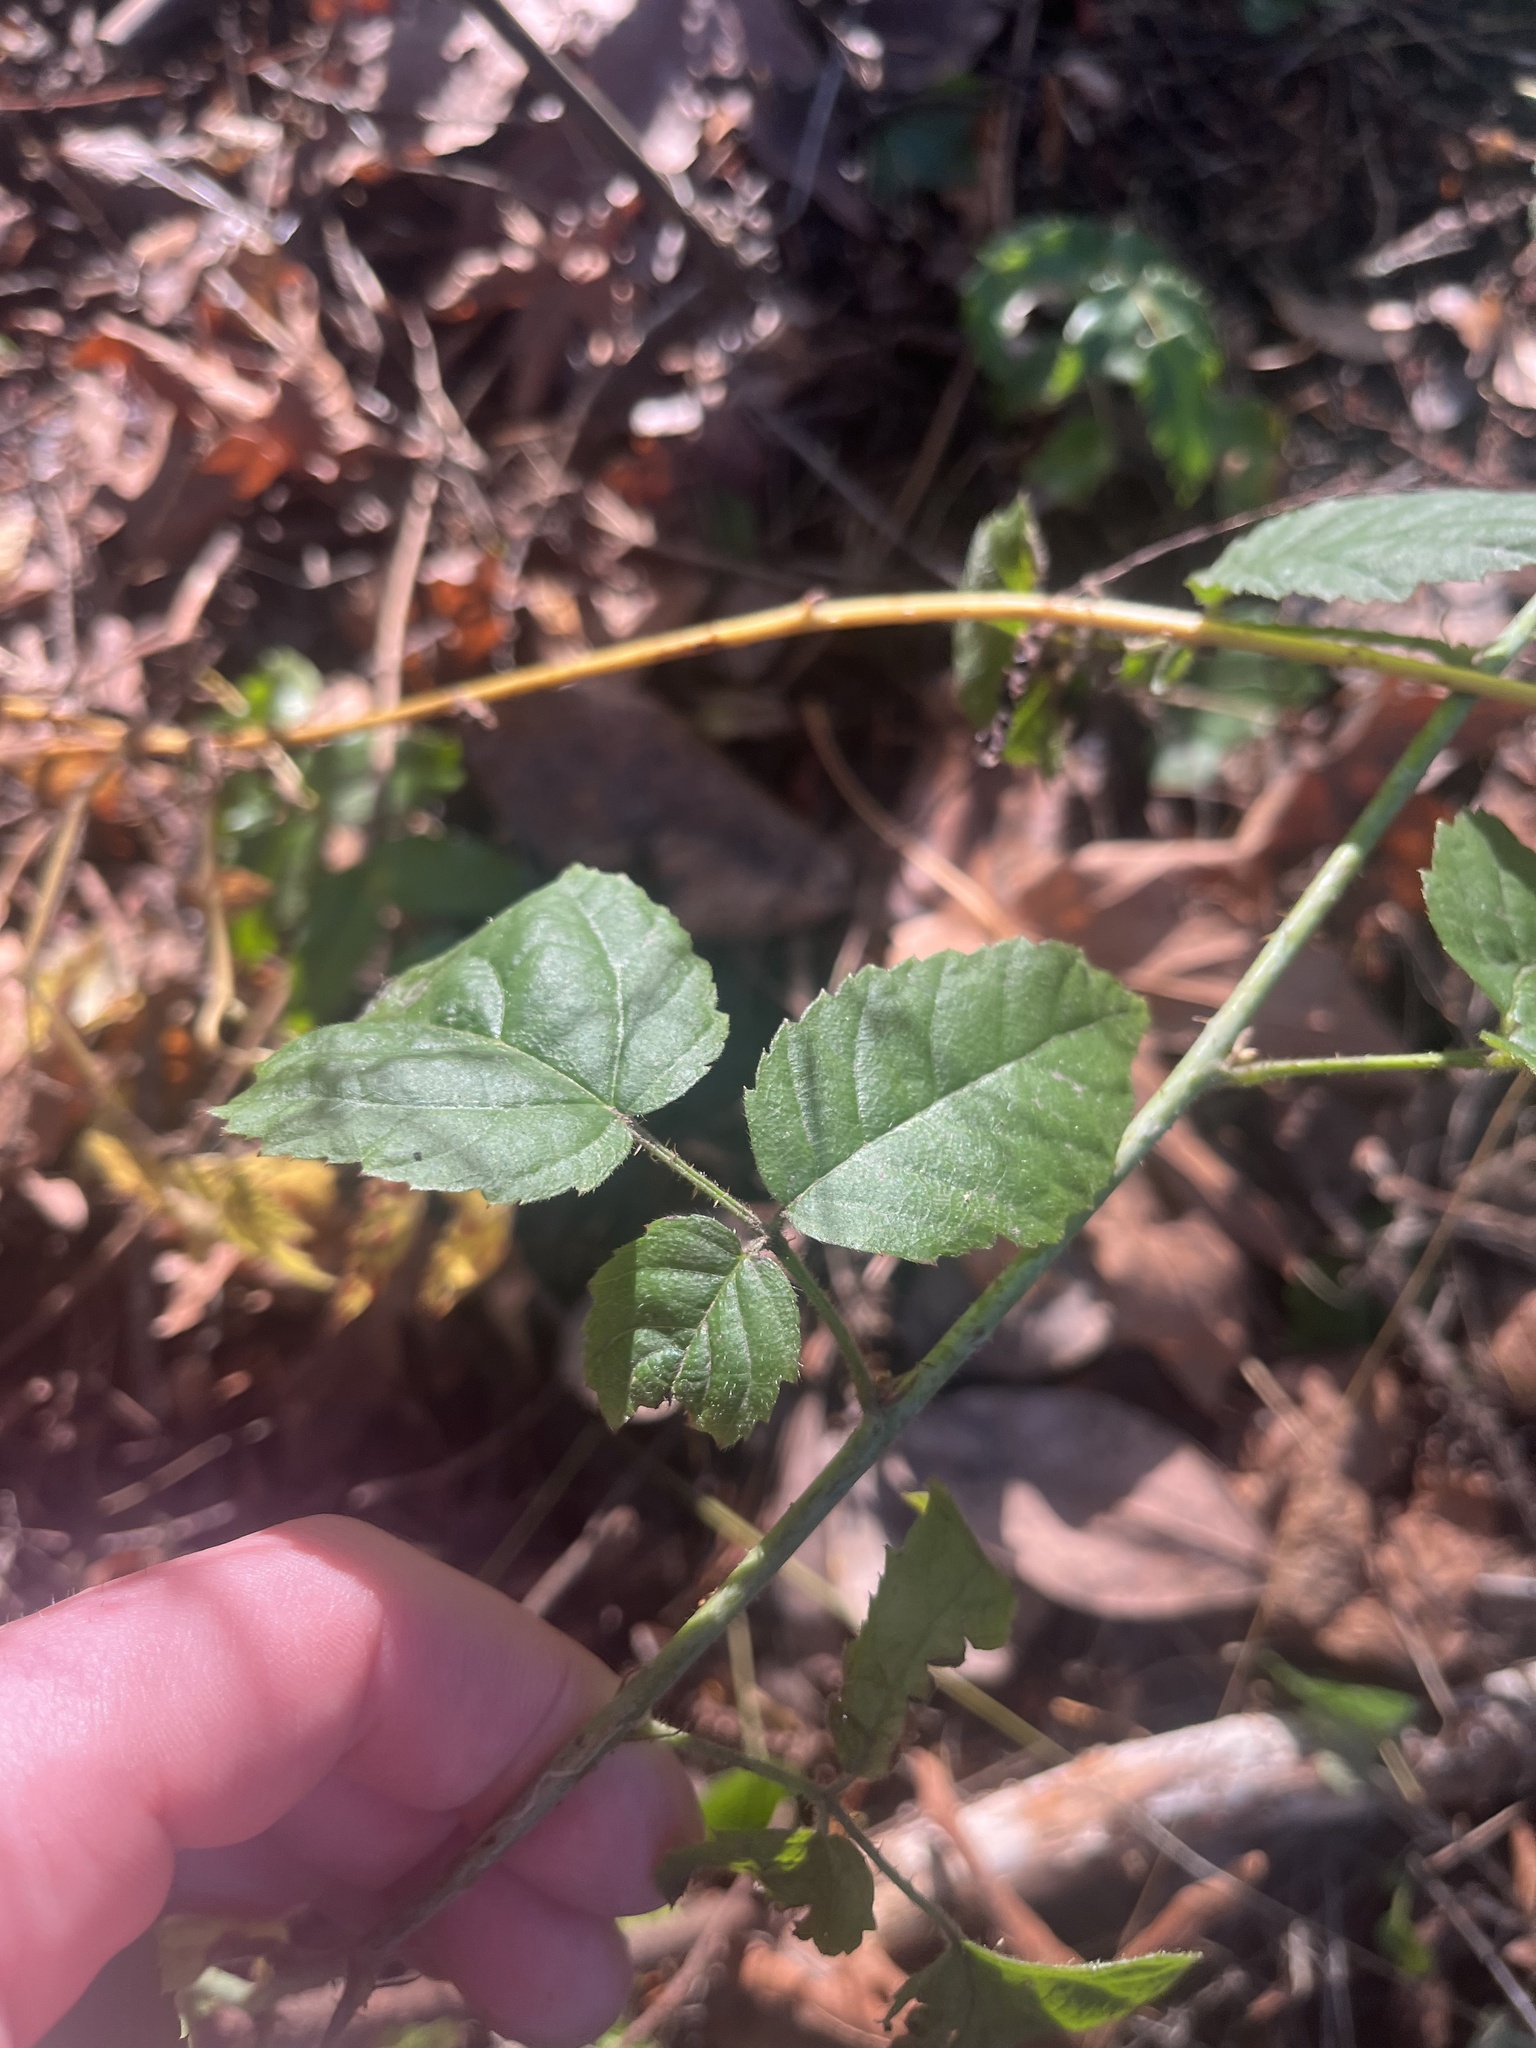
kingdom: Plantae
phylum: Tracheophyta
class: Magnoliopsida
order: Rosales
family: Rosaceae
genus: Rubus
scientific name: Rubus ursinus
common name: Pacific blackberry
